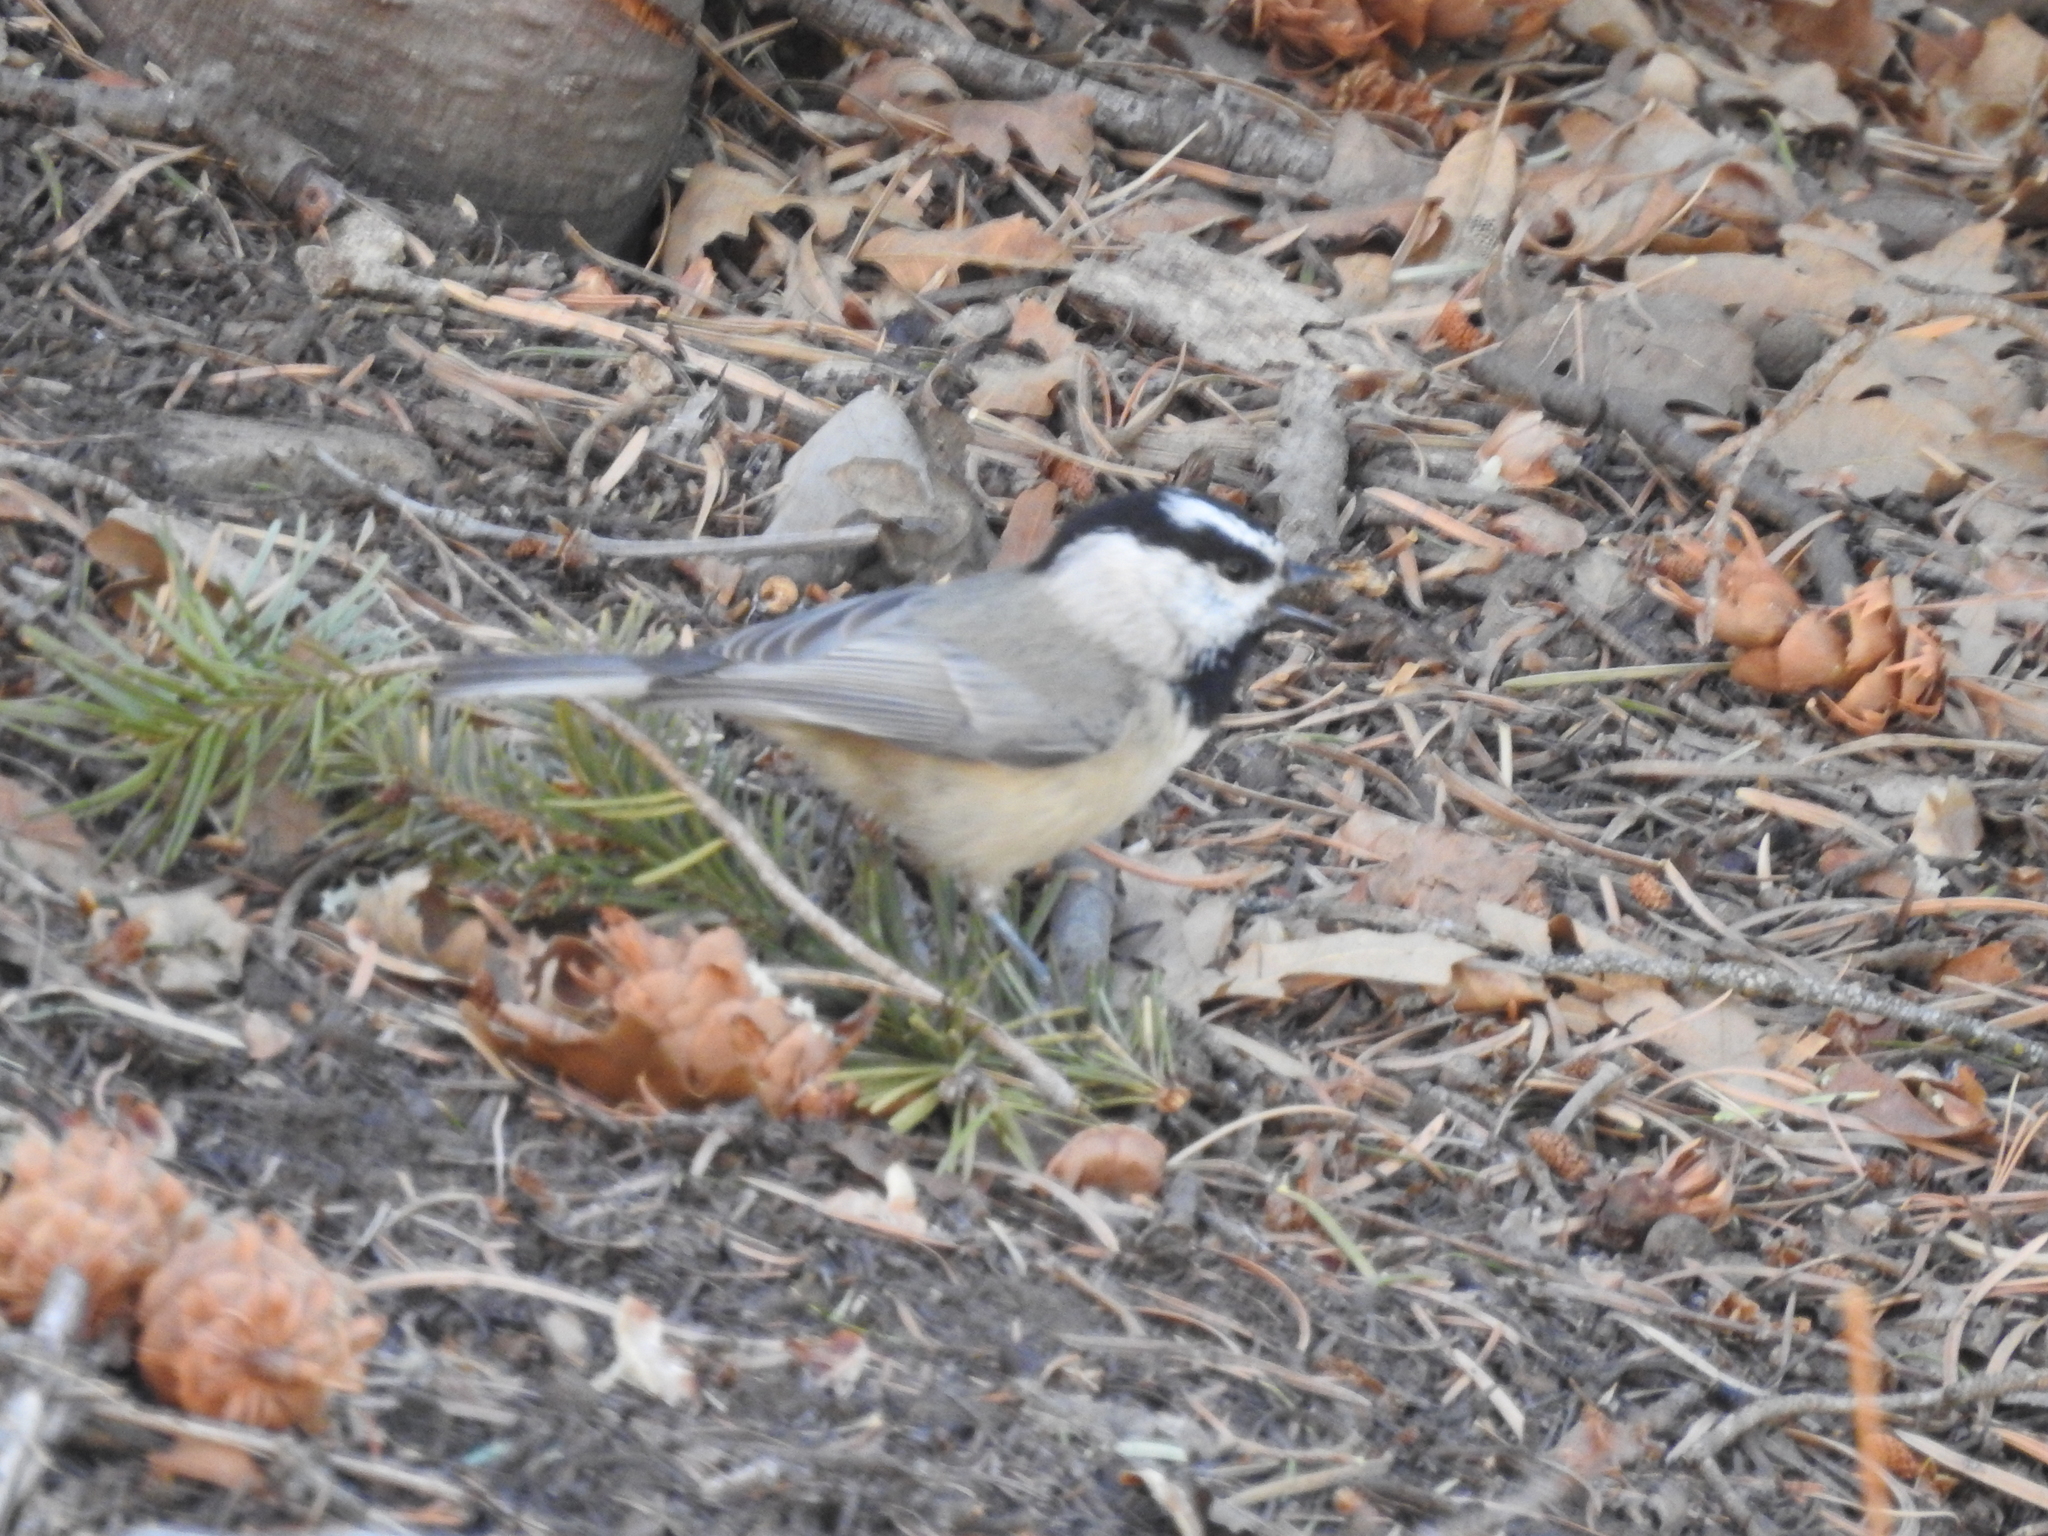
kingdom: Animalia
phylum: Chordata
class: Aves
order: Passeriformes
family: Paridae
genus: Poecile
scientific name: Poecile gambeli
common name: Mountain chickadee
